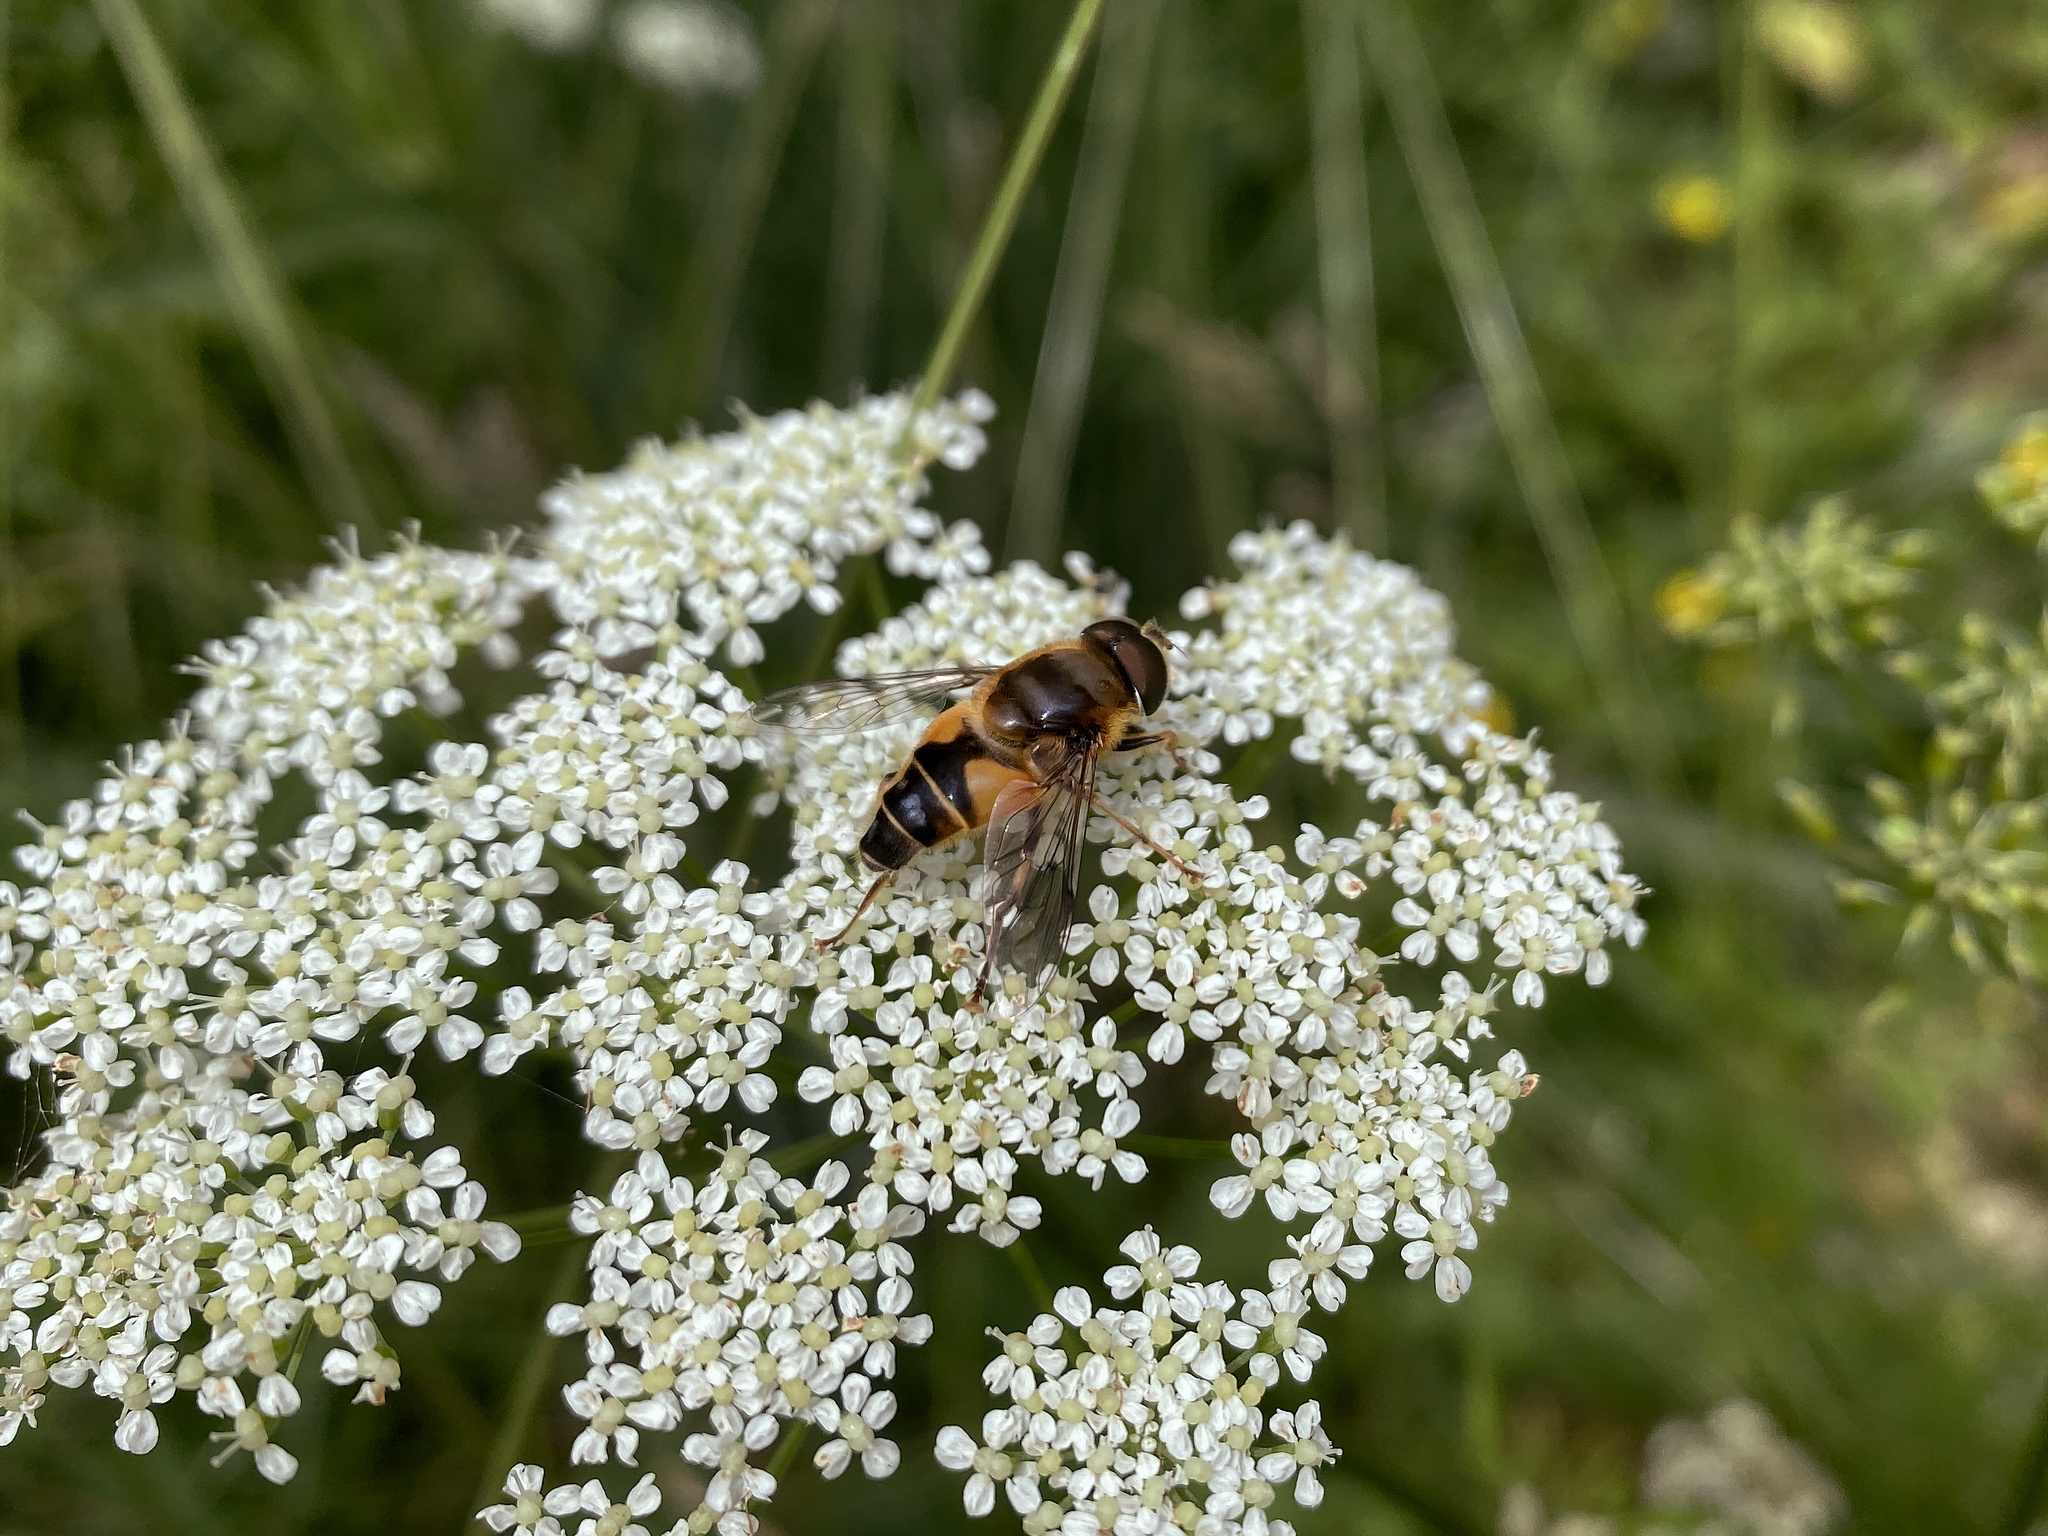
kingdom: Animalia
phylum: Arthropoda
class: Insecta
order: Diptera
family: Syrphidae
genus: Eristalis
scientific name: Eristalis pertinax
